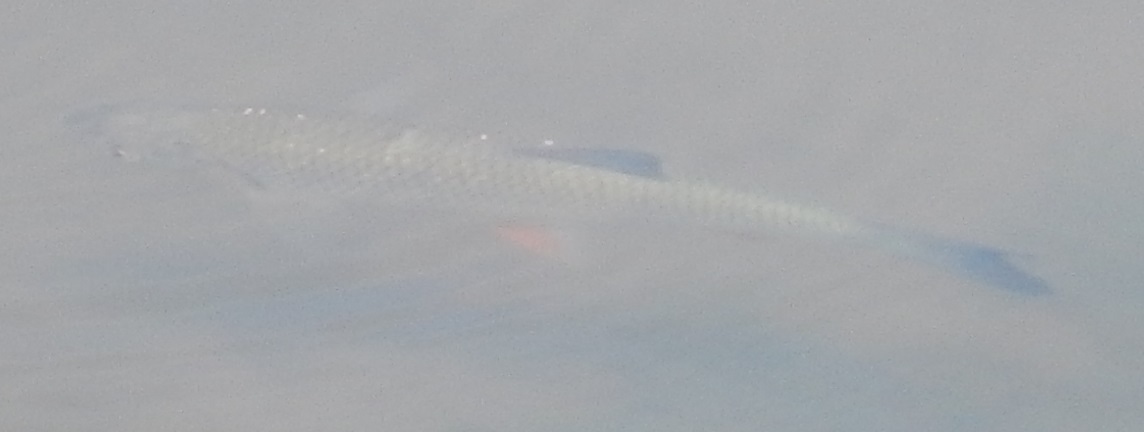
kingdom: Animalia
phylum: Chordata
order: Cypriniformes
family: Cyprinidae
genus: Squalius
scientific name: Squalius cephalus
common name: Chub
